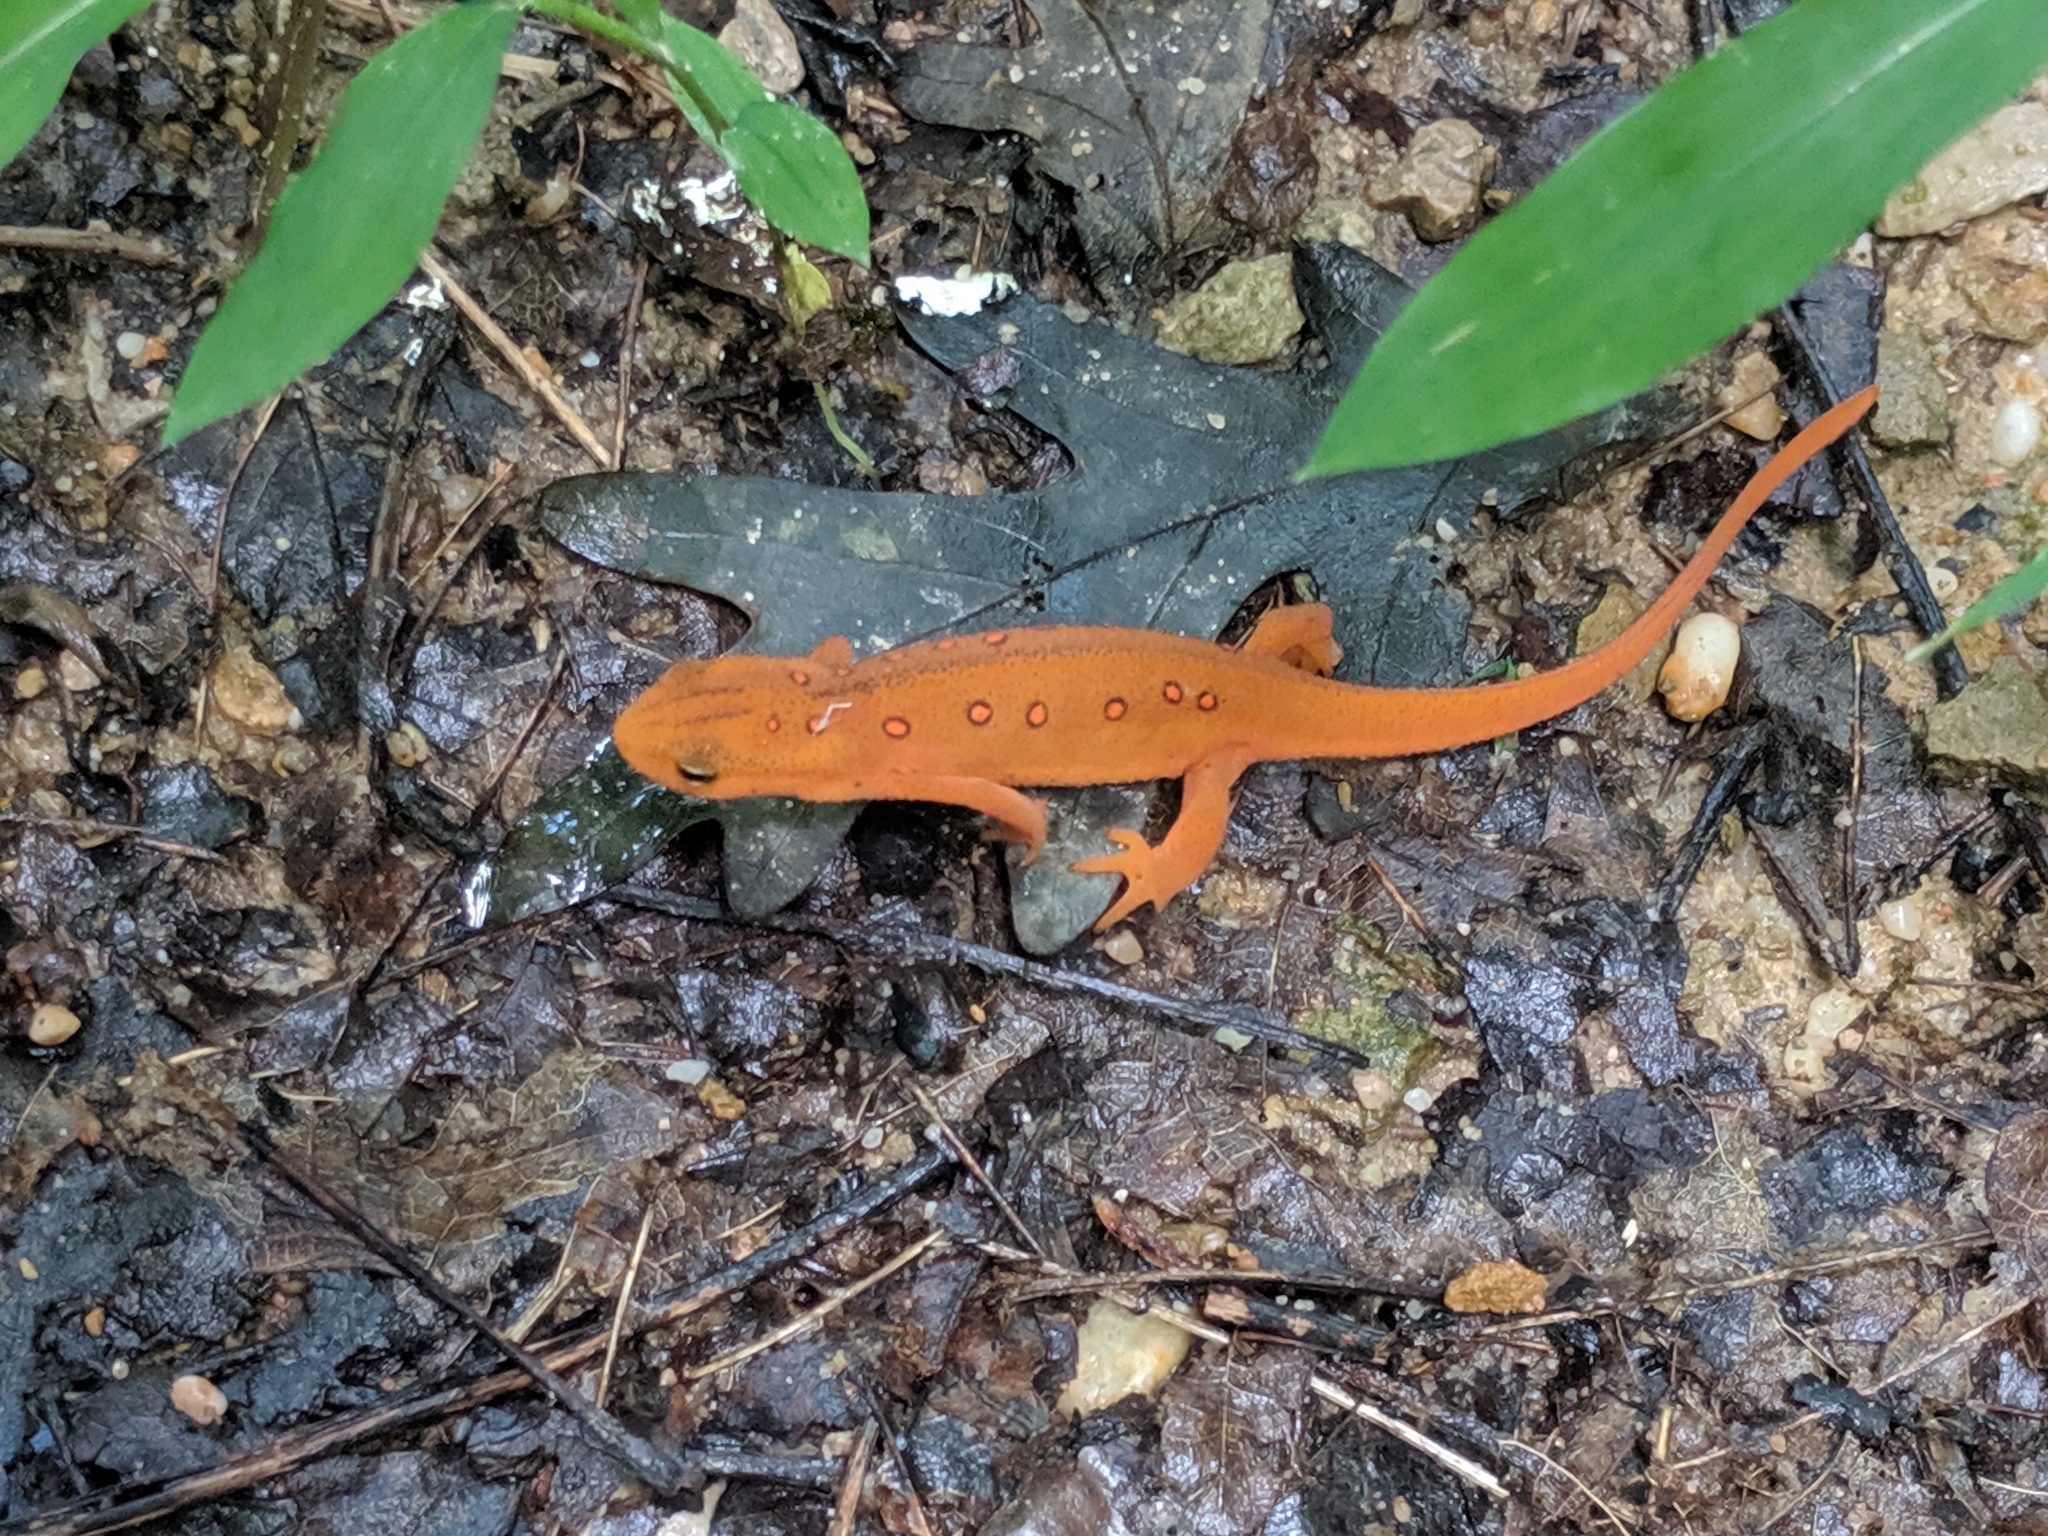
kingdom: Animalia
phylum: Chordata
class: Amphibia
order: Caudata
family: Salamandridae
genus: Notophthalmus
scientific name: Notophthalmus viridescens
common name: Eastern newt
